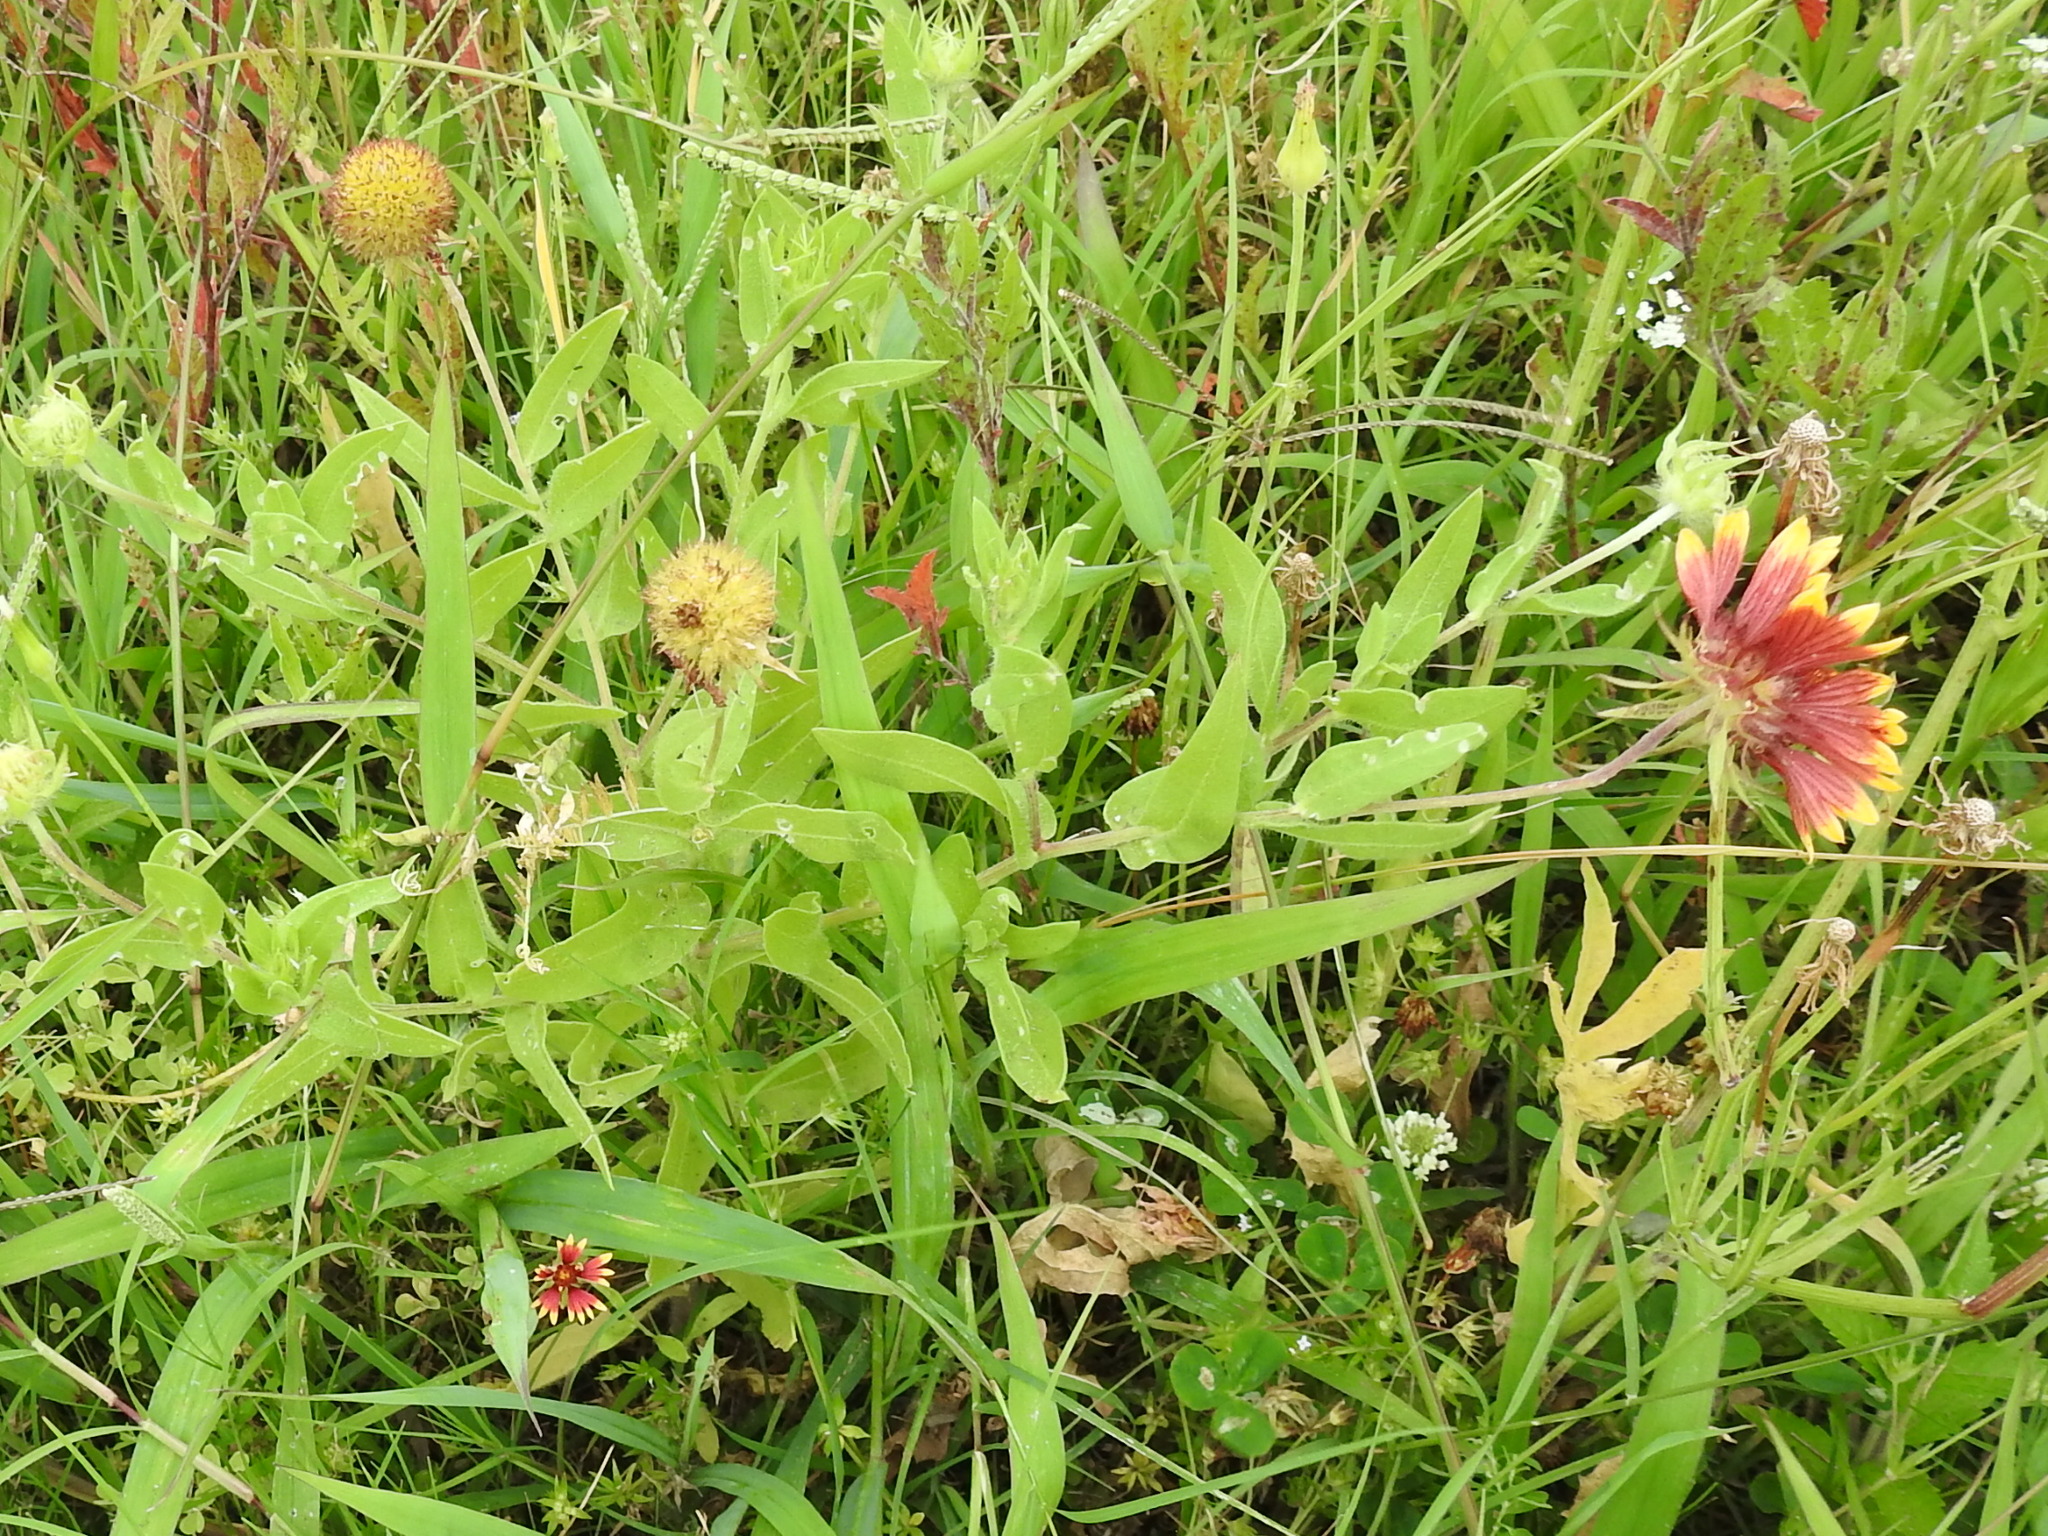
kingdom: Plantae
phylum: Tracheophyta
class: Magnoliopsida
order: Asterales
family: Asteraceae
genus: Gaillardia
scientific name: Gaillardia pulchella
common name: Firewheel
